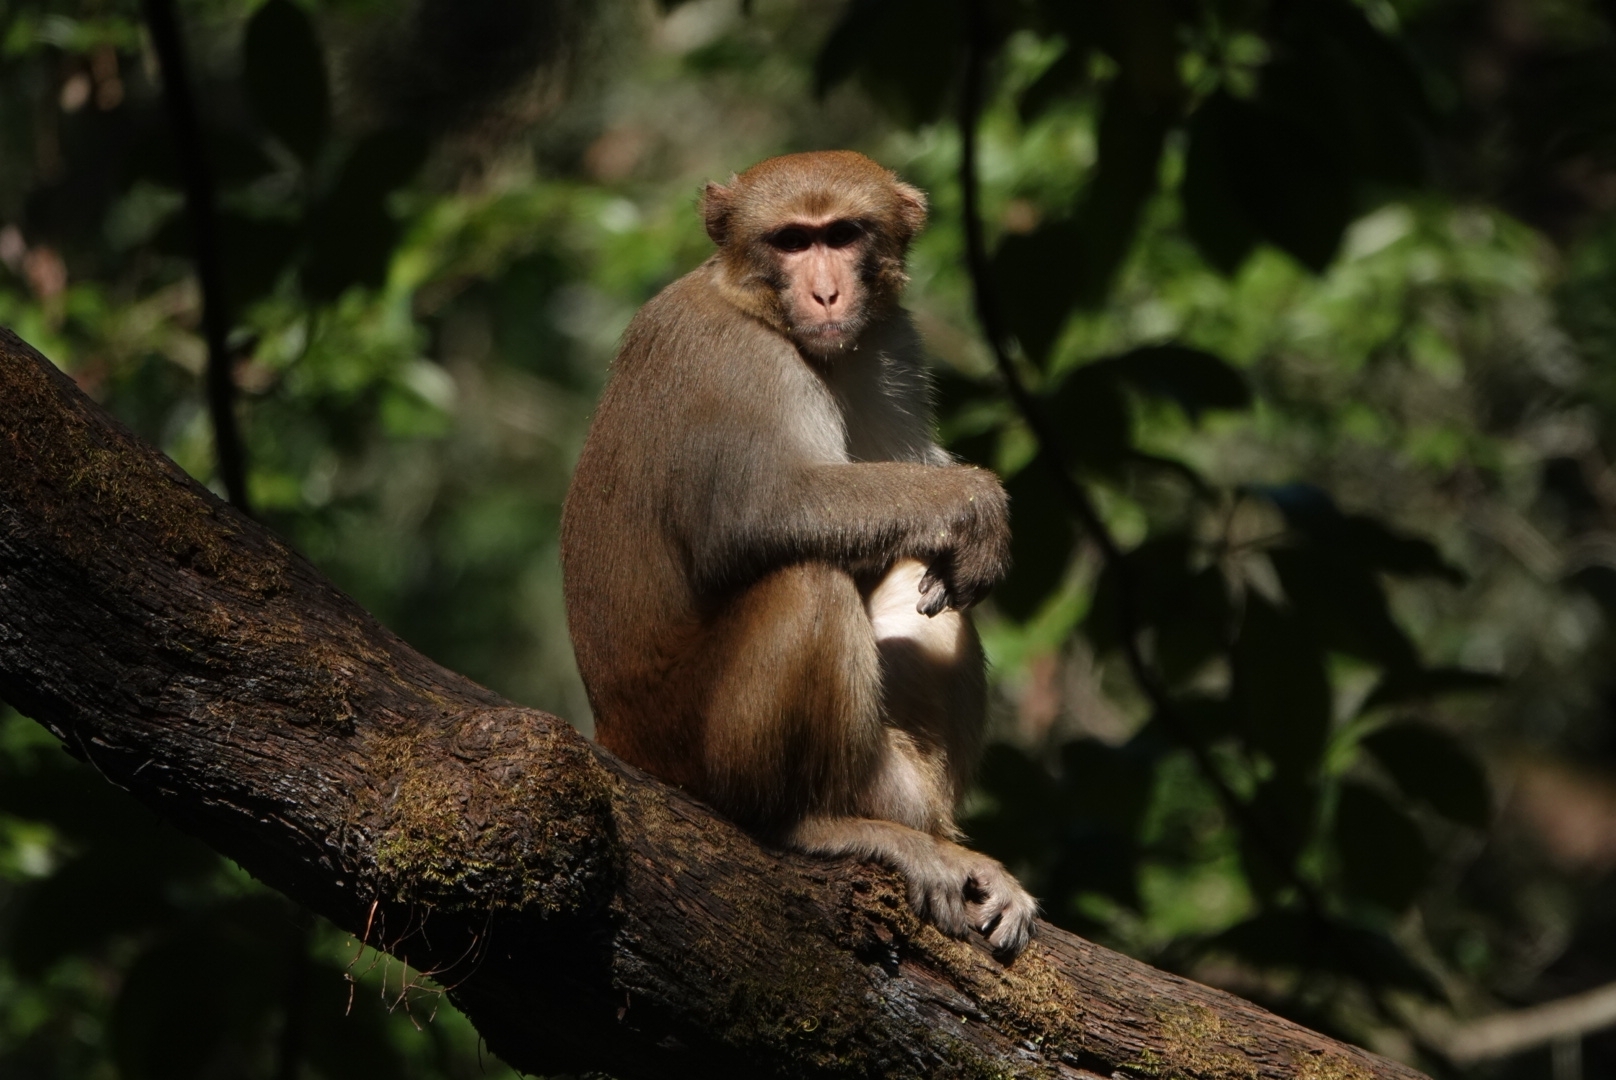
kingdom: Animalia
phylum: Chordata
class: Mammalia
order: Primates
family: Cercopithecidae
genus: Macaca
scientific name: Macaca mulatta
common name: Rhesus monkey
